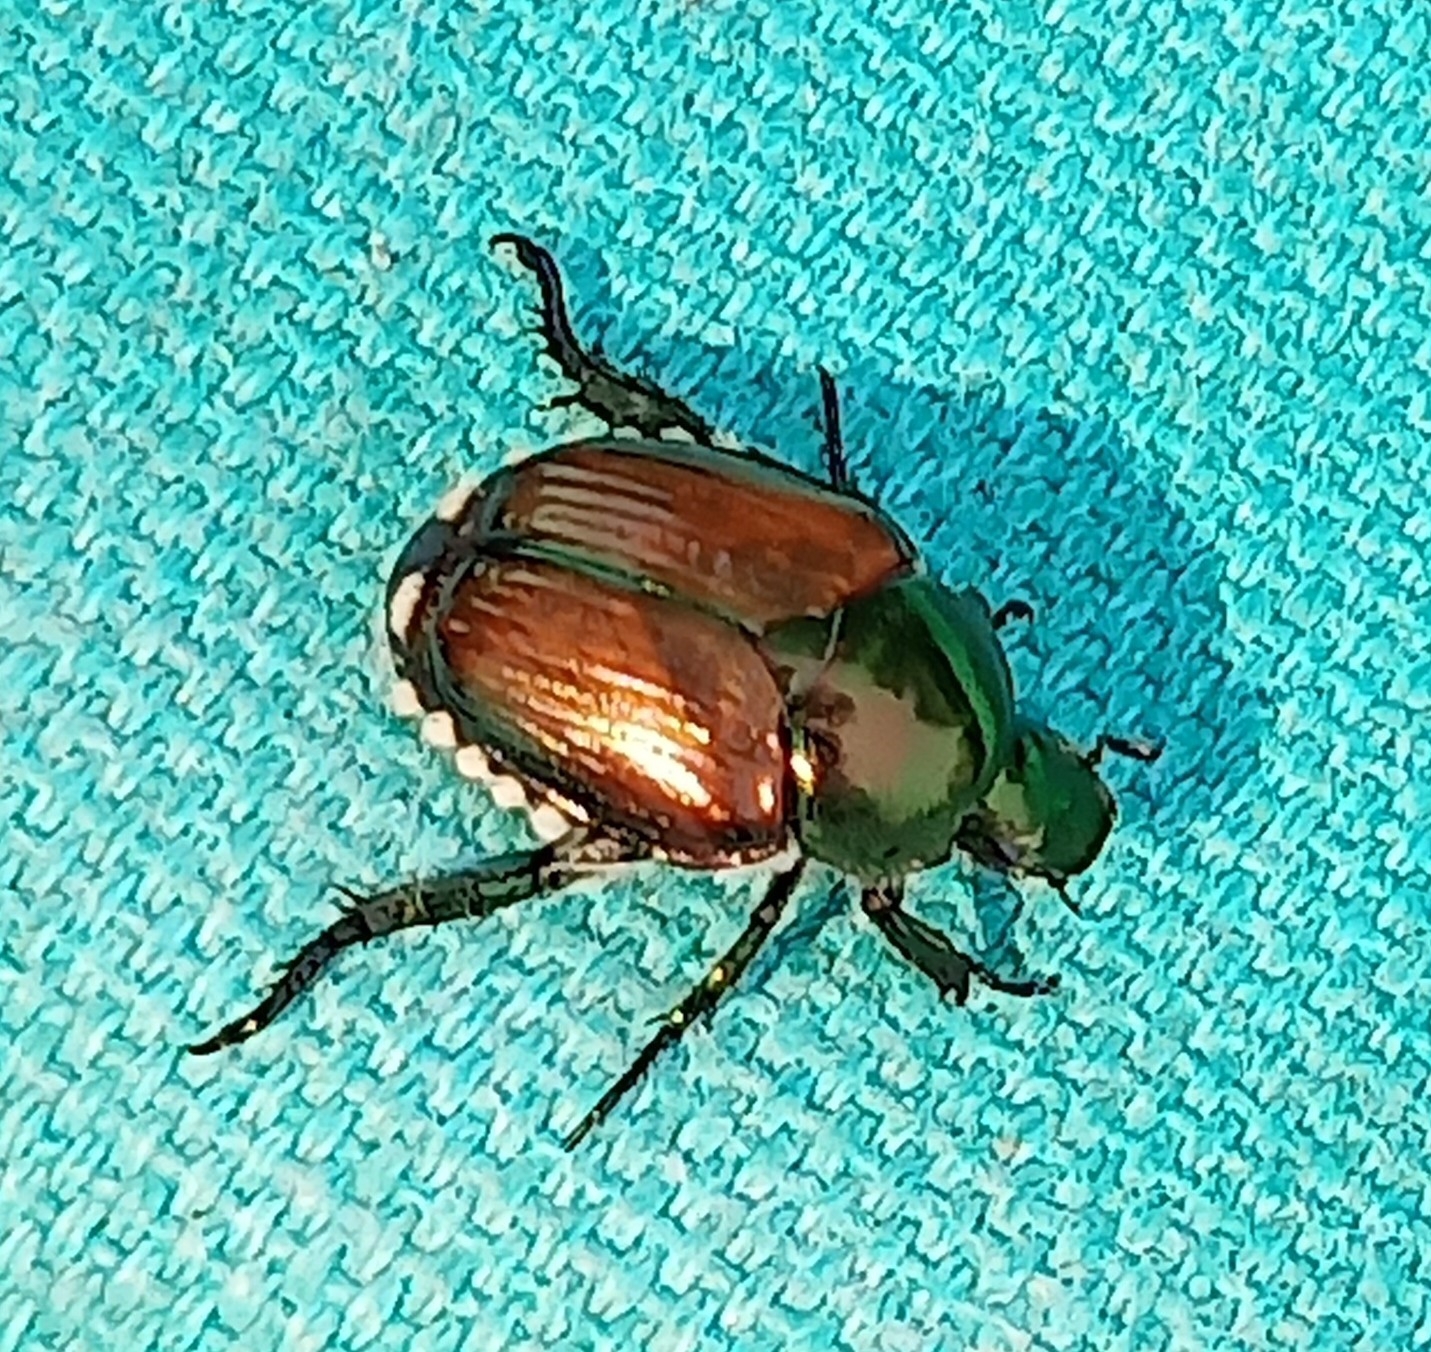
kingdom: Animalia
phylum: Arthropoda
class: Insecta
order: Coleoptera
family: Scarabaeidae
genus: Popillia
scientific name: Popillia japonica
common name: Japanese beetle
